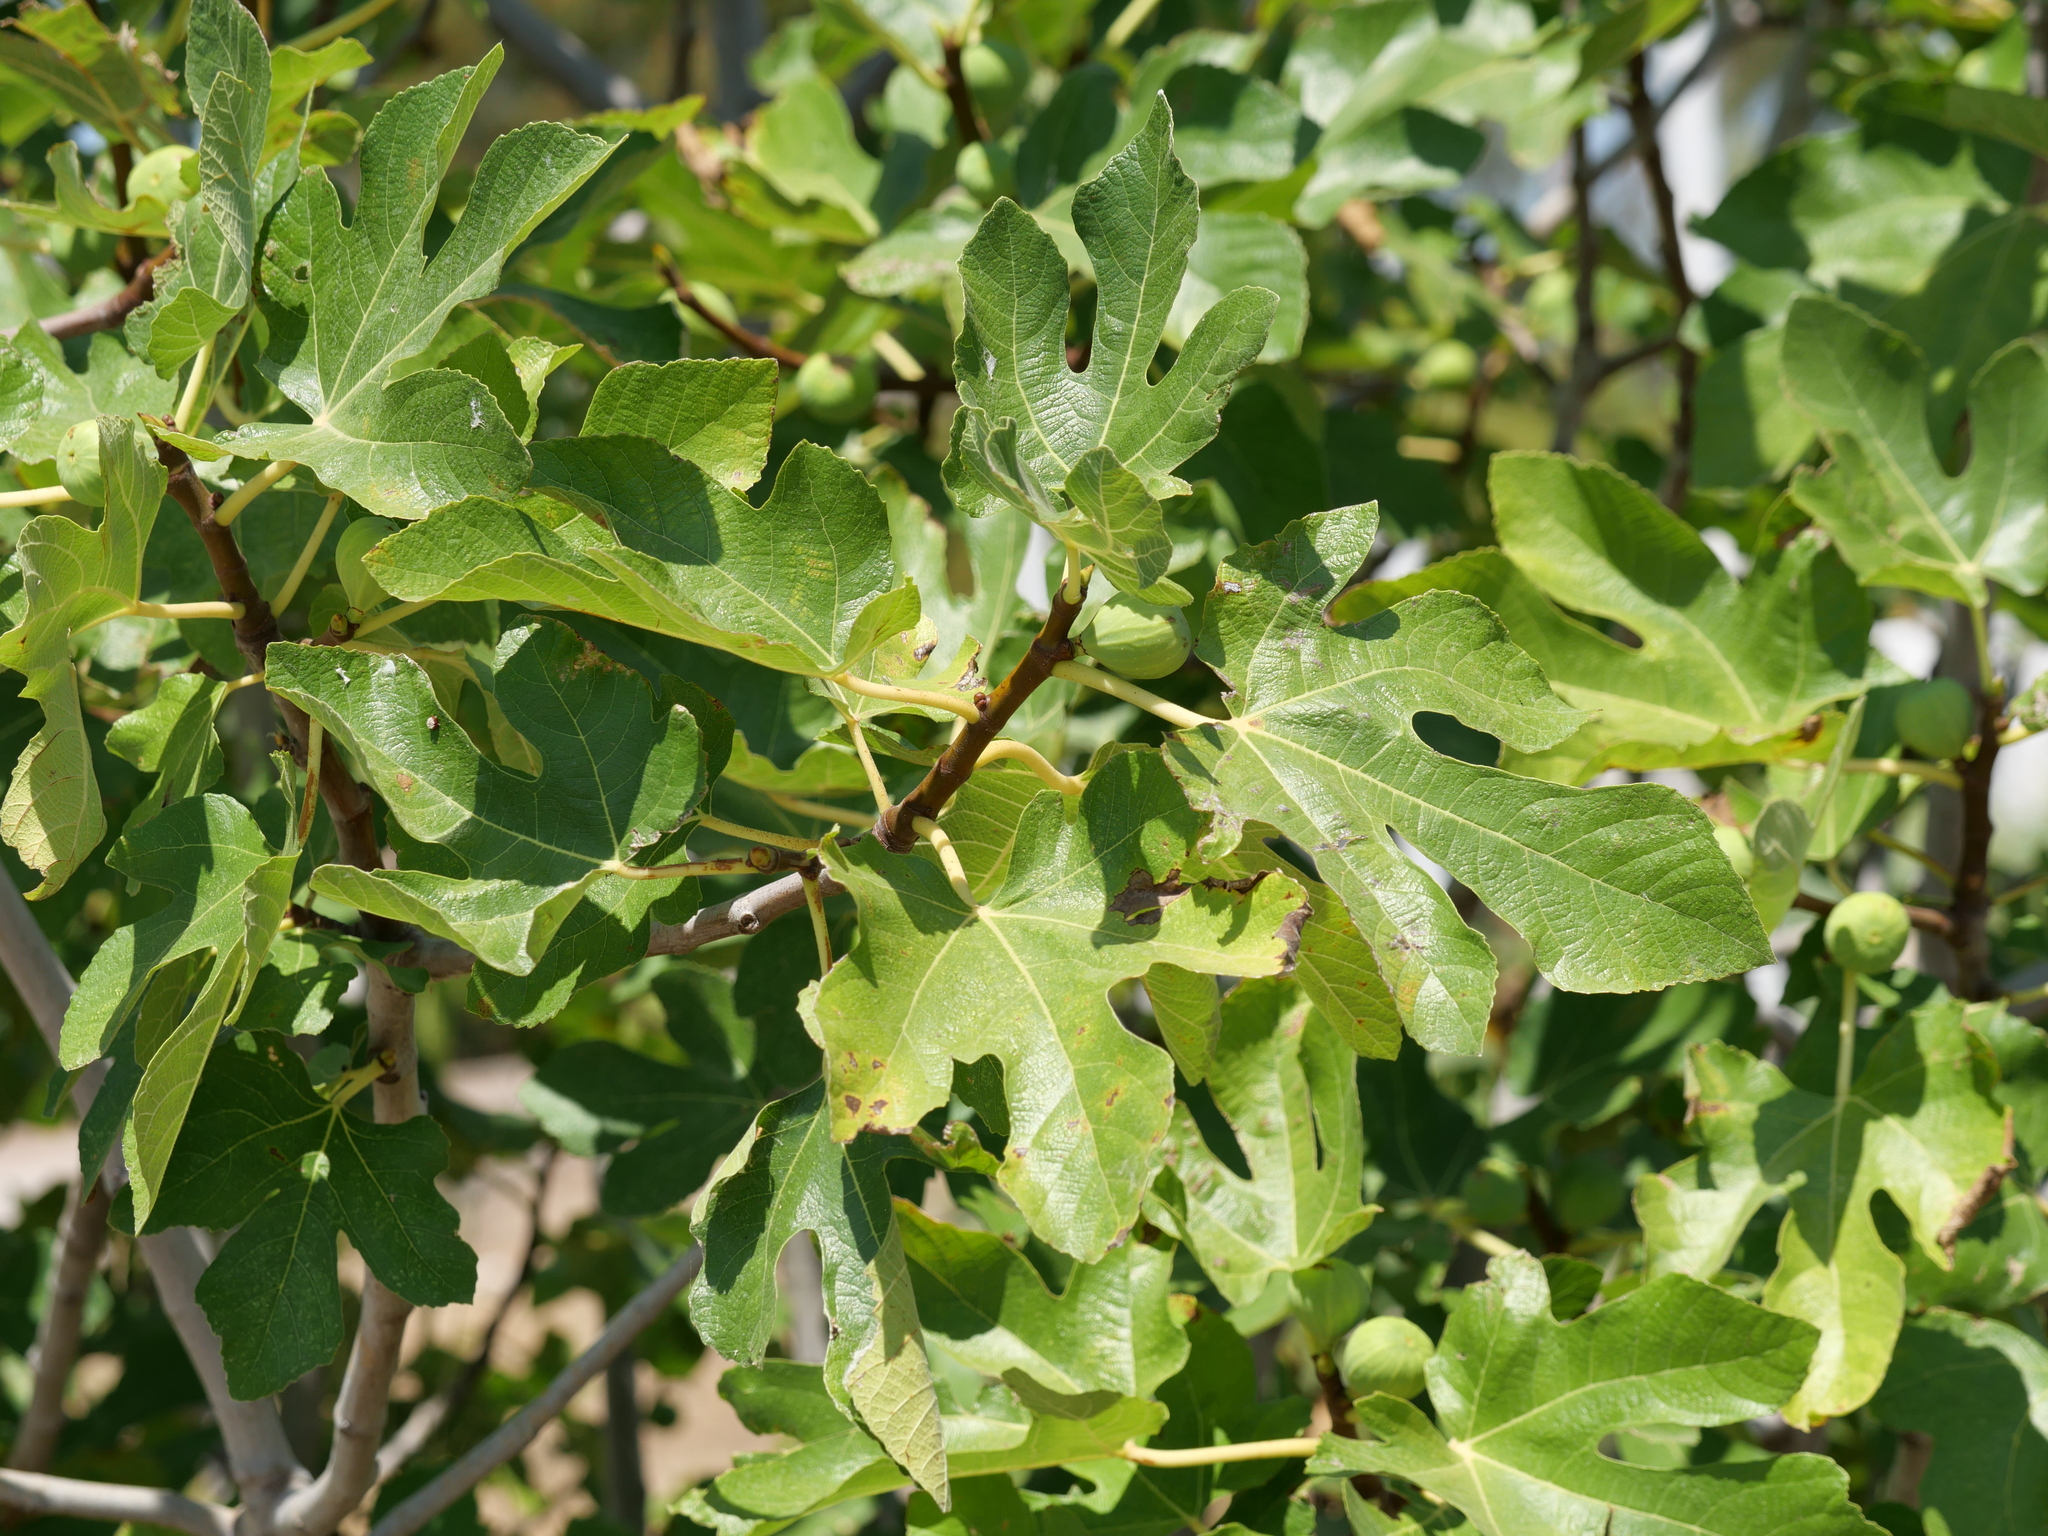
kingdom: Plantae
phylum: Tracheophyta
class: Magnoliopsida
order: Rosales
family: Moraceae
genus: Ficus
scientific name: Ficus carica
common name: Fig
